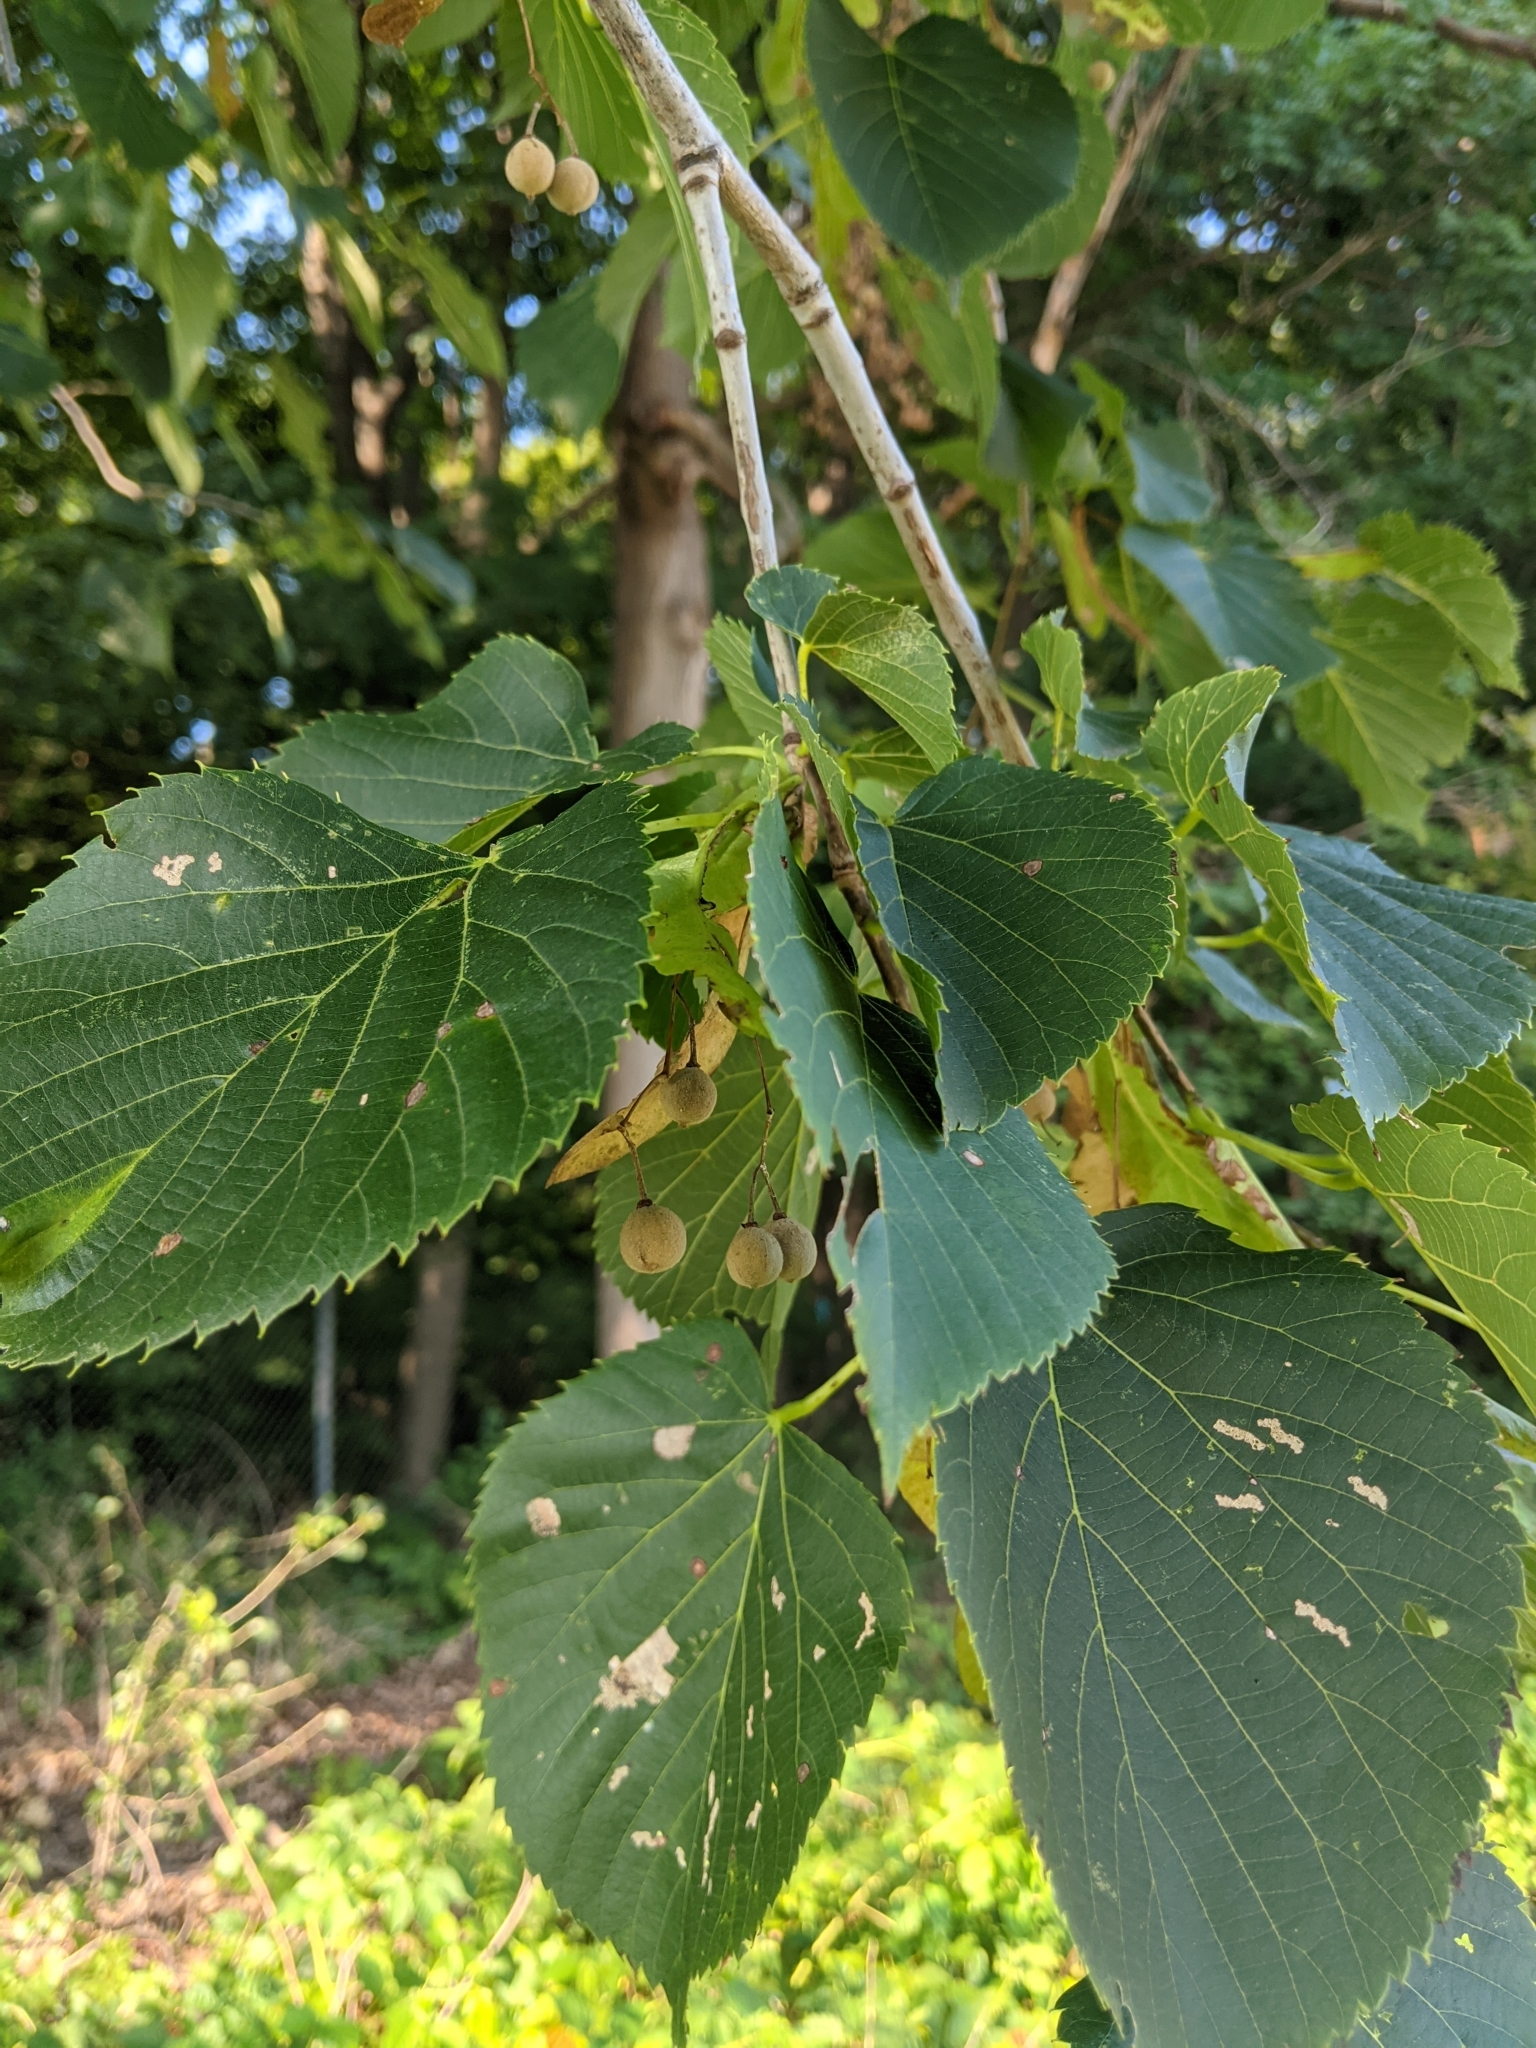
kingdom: Plantae
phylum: Tracheophyta
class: Magnoliopsida
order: Malvales
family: Malvaceae
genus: Tilia
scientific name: Tilia americana
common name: Basswood
